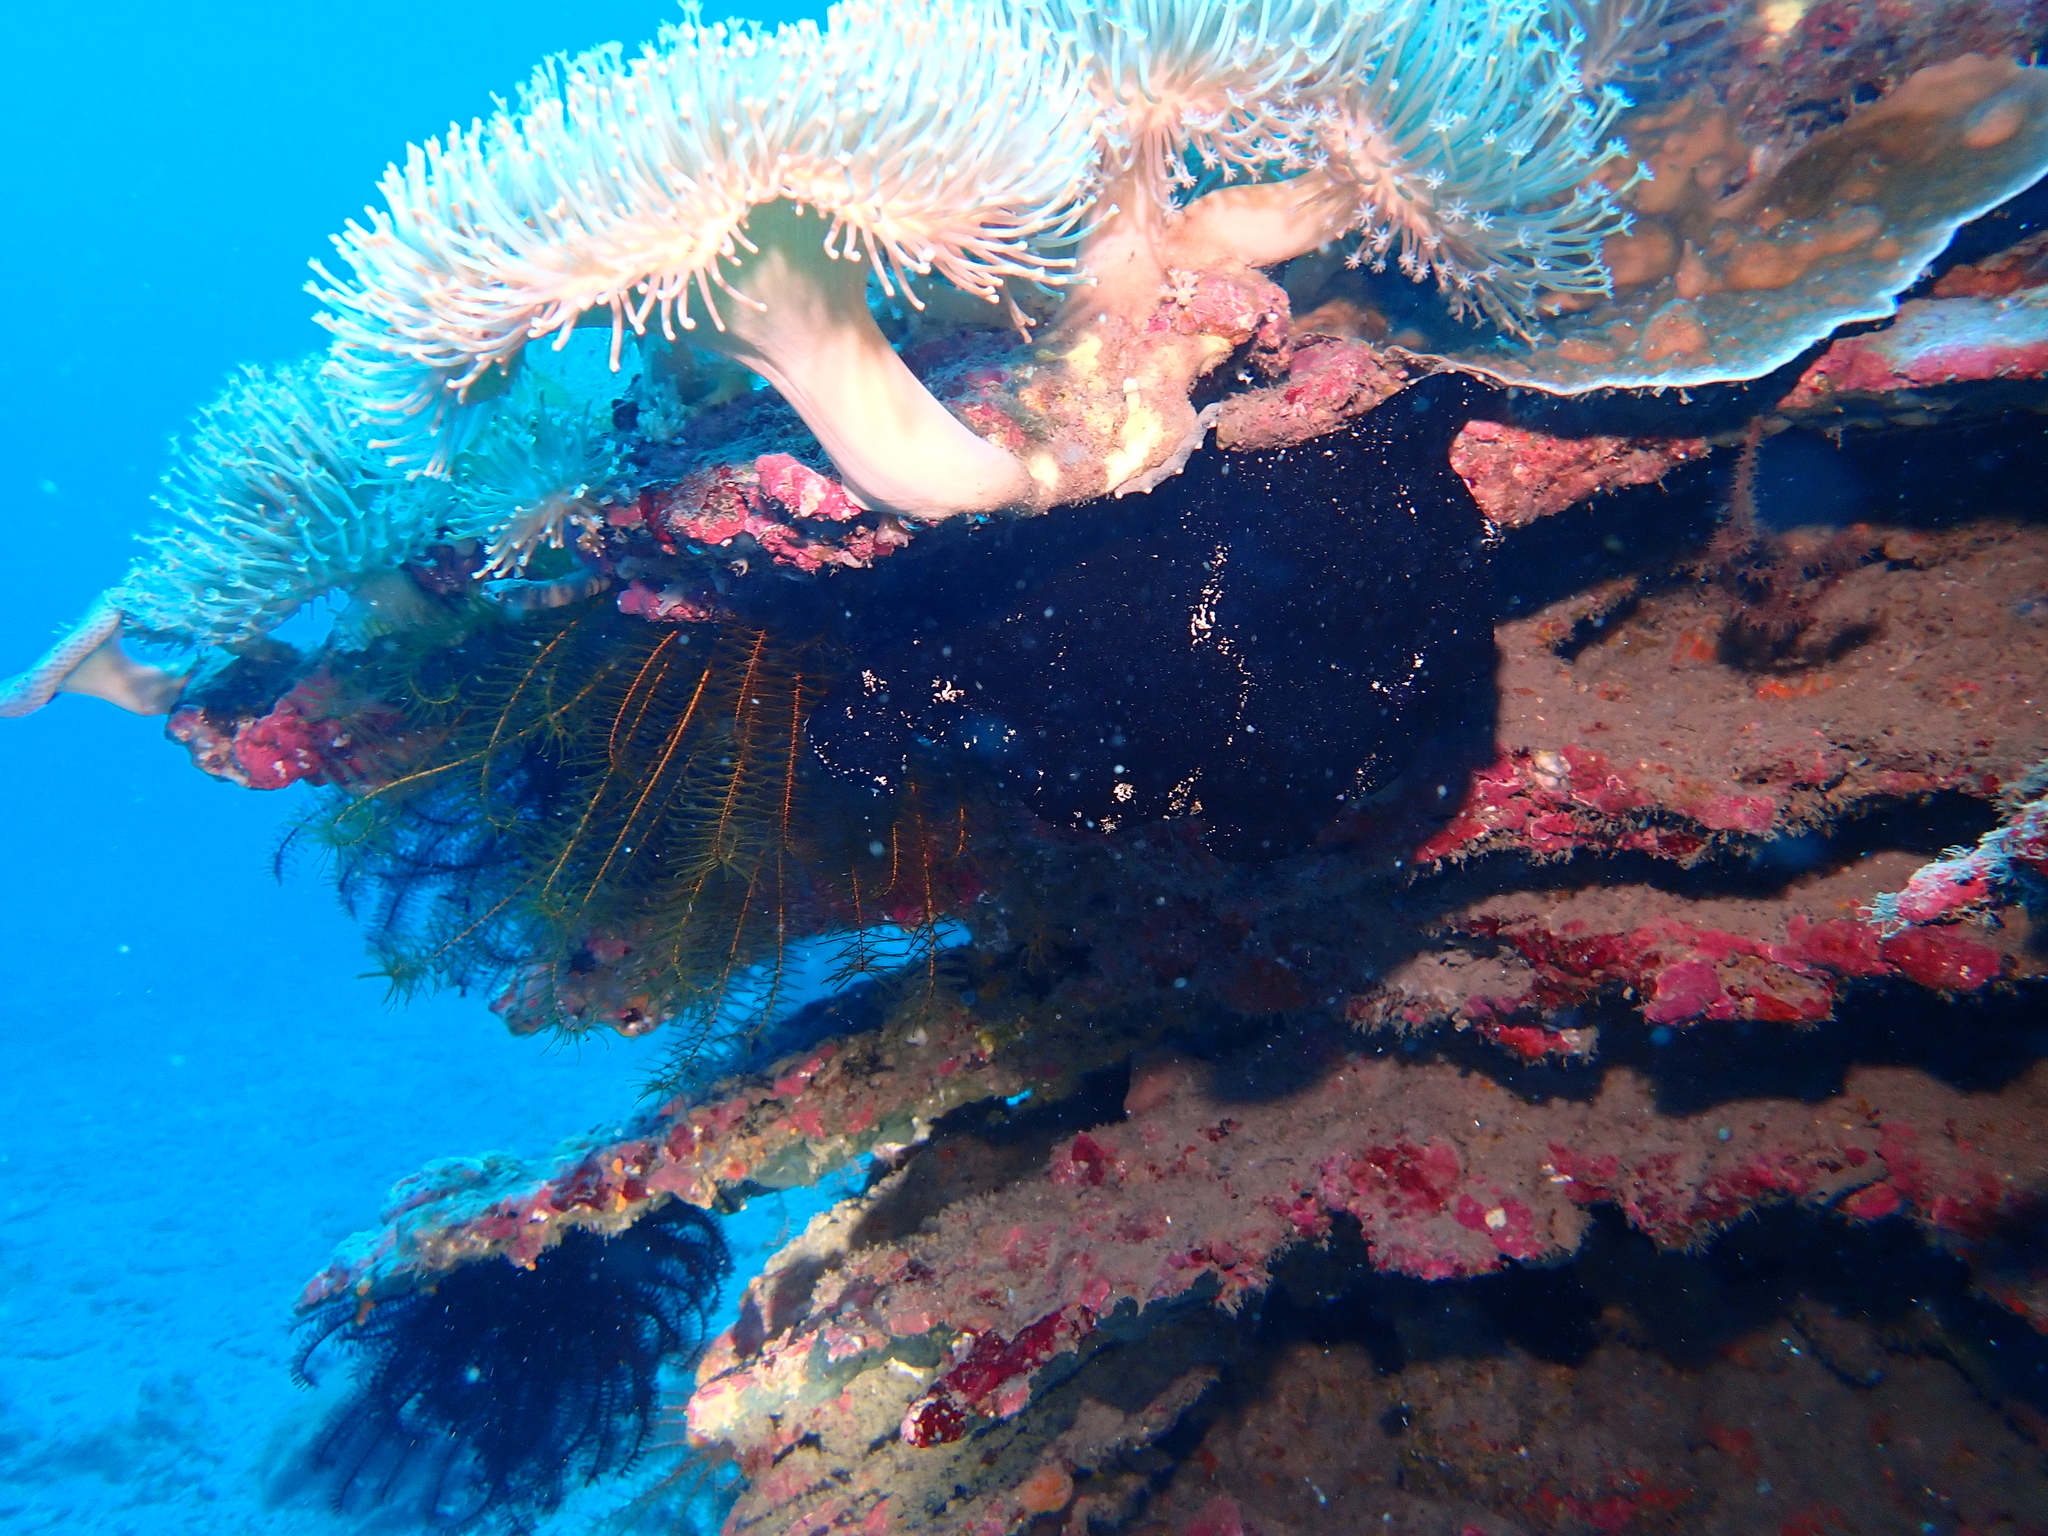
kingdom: Animalia
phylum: Chordata
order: Lophiiformes
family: Antennariidae
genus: Antennarius
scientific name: Antennarius commerson
